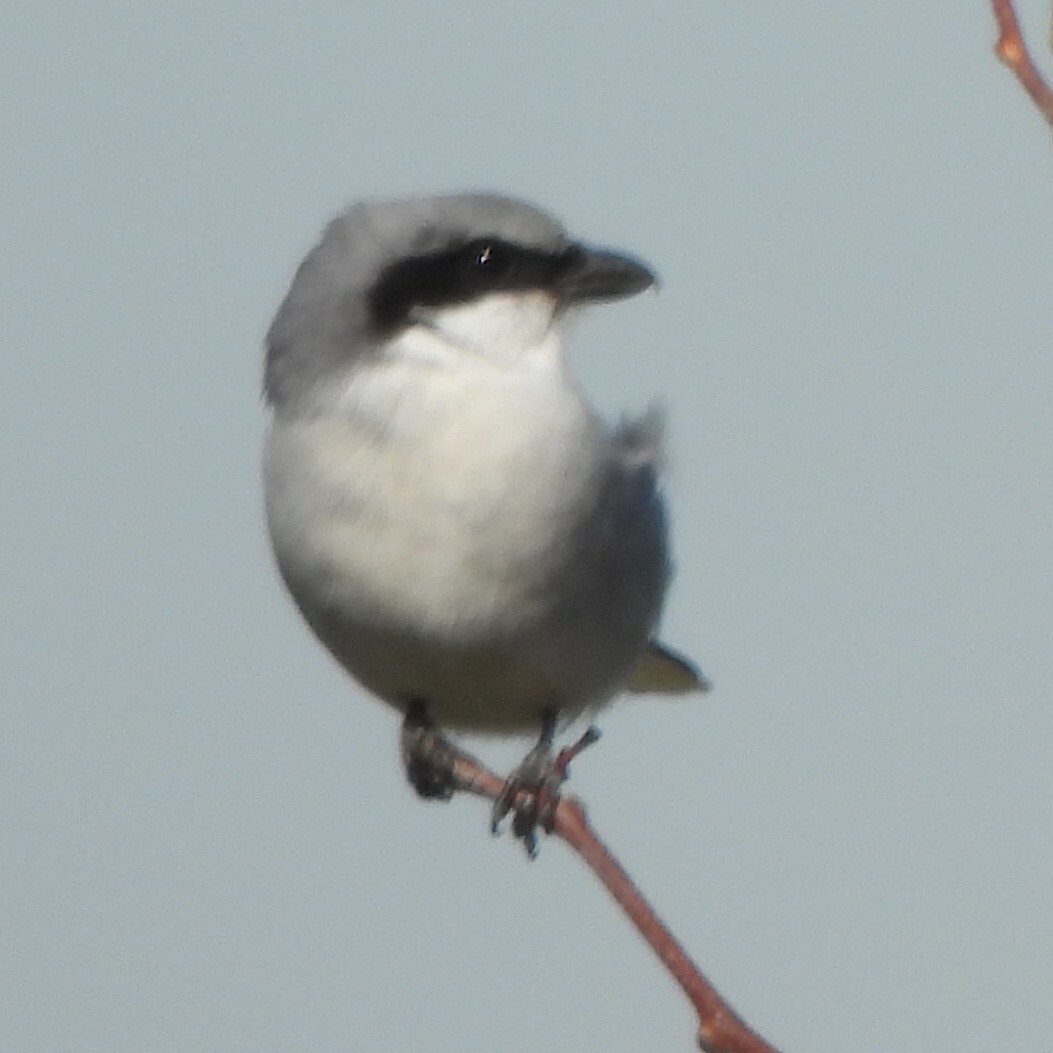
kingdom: Animalia
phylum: Chordata
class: Aves
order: Passeriformes
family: Laniidae
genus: Lanius
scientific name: Lanius ludovicianus
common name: Loggerhead shrike
